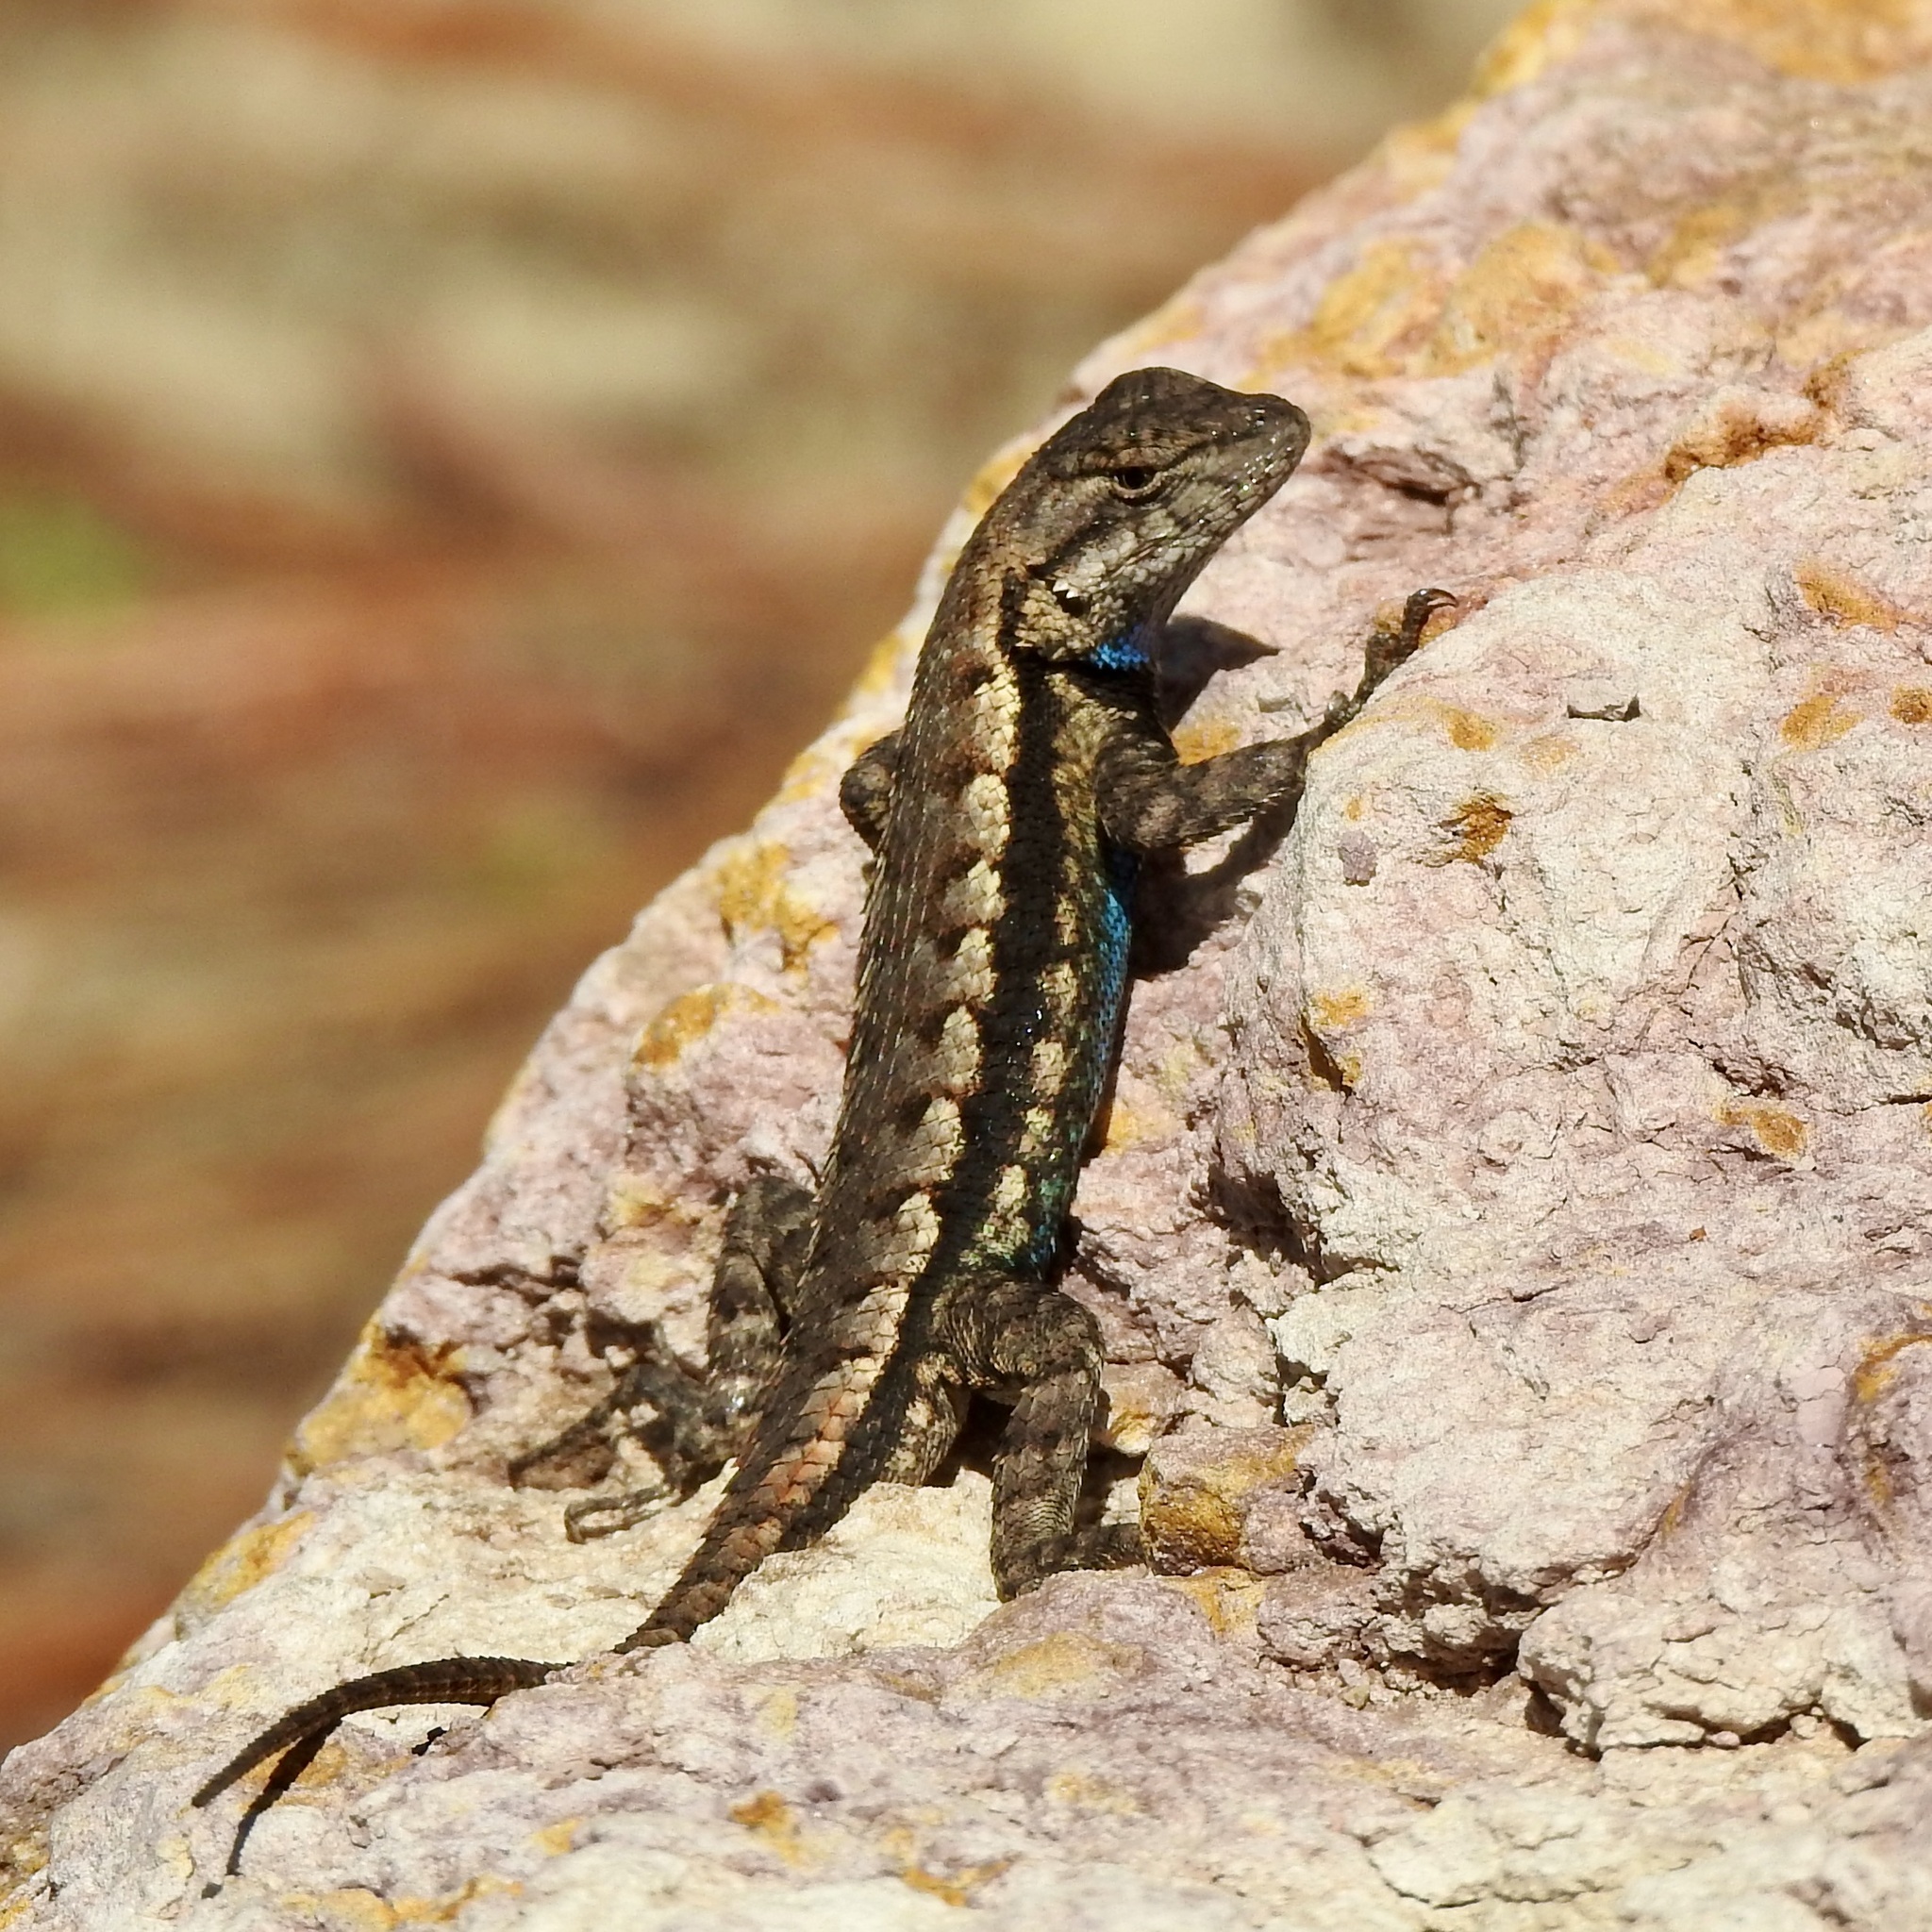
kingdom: Animalia
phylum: Chordata
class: Squamata
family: Phrynosomatidae
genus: Sceloporus
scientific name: Sceloporus consobrinus
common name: Southern prairie lizard
